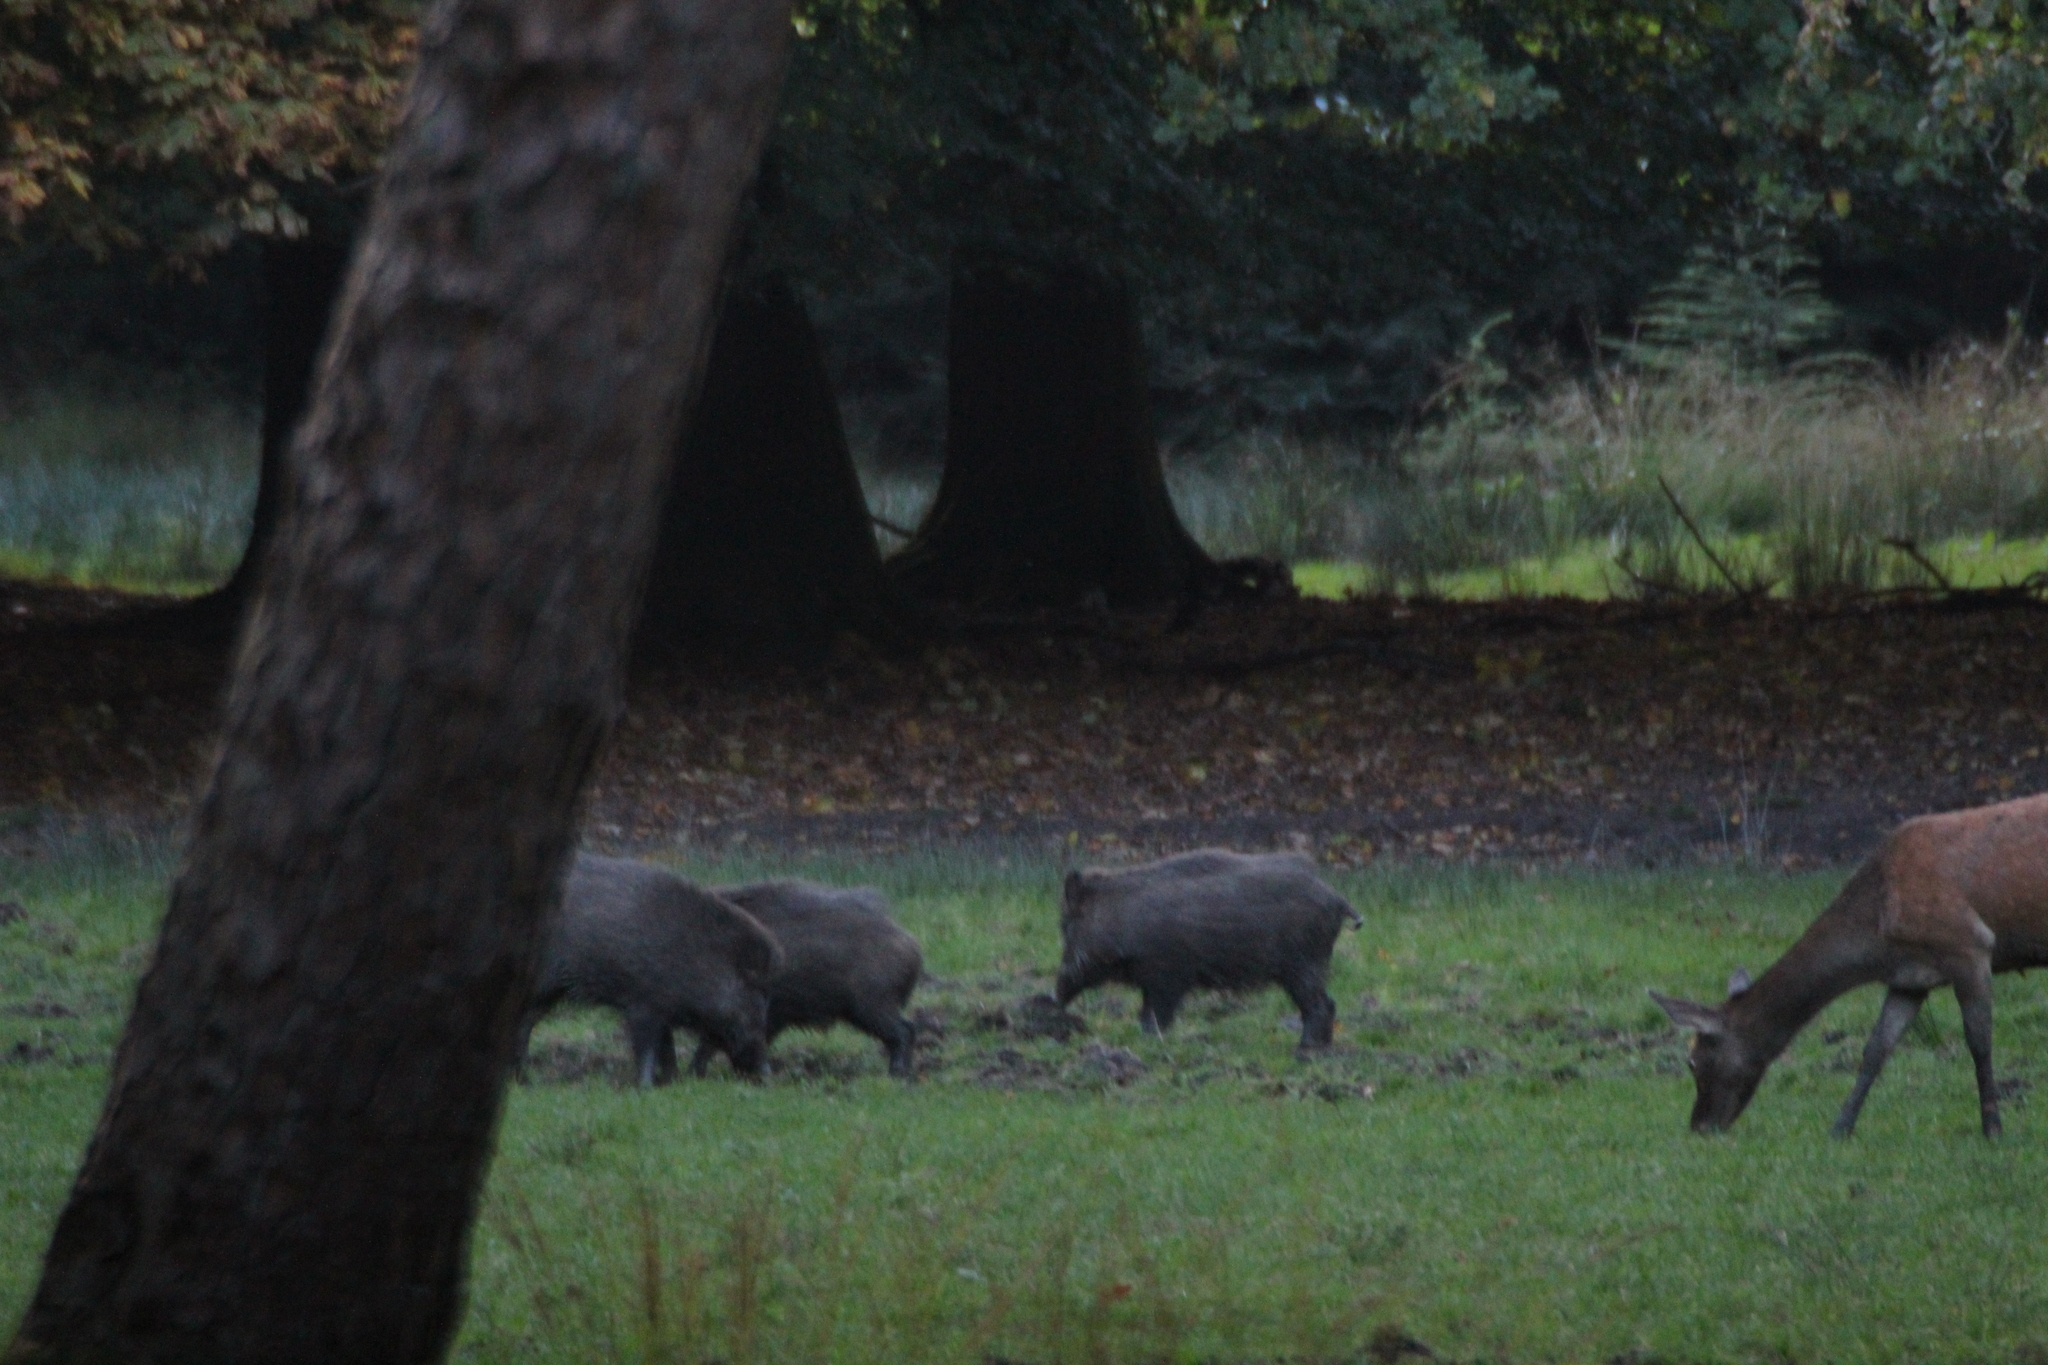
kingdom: Animalia
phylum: Chordata
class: Mammalia
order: Artiodactyla
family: Suidae
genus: Sus
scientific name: Sus scrofa
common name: Wild boar
